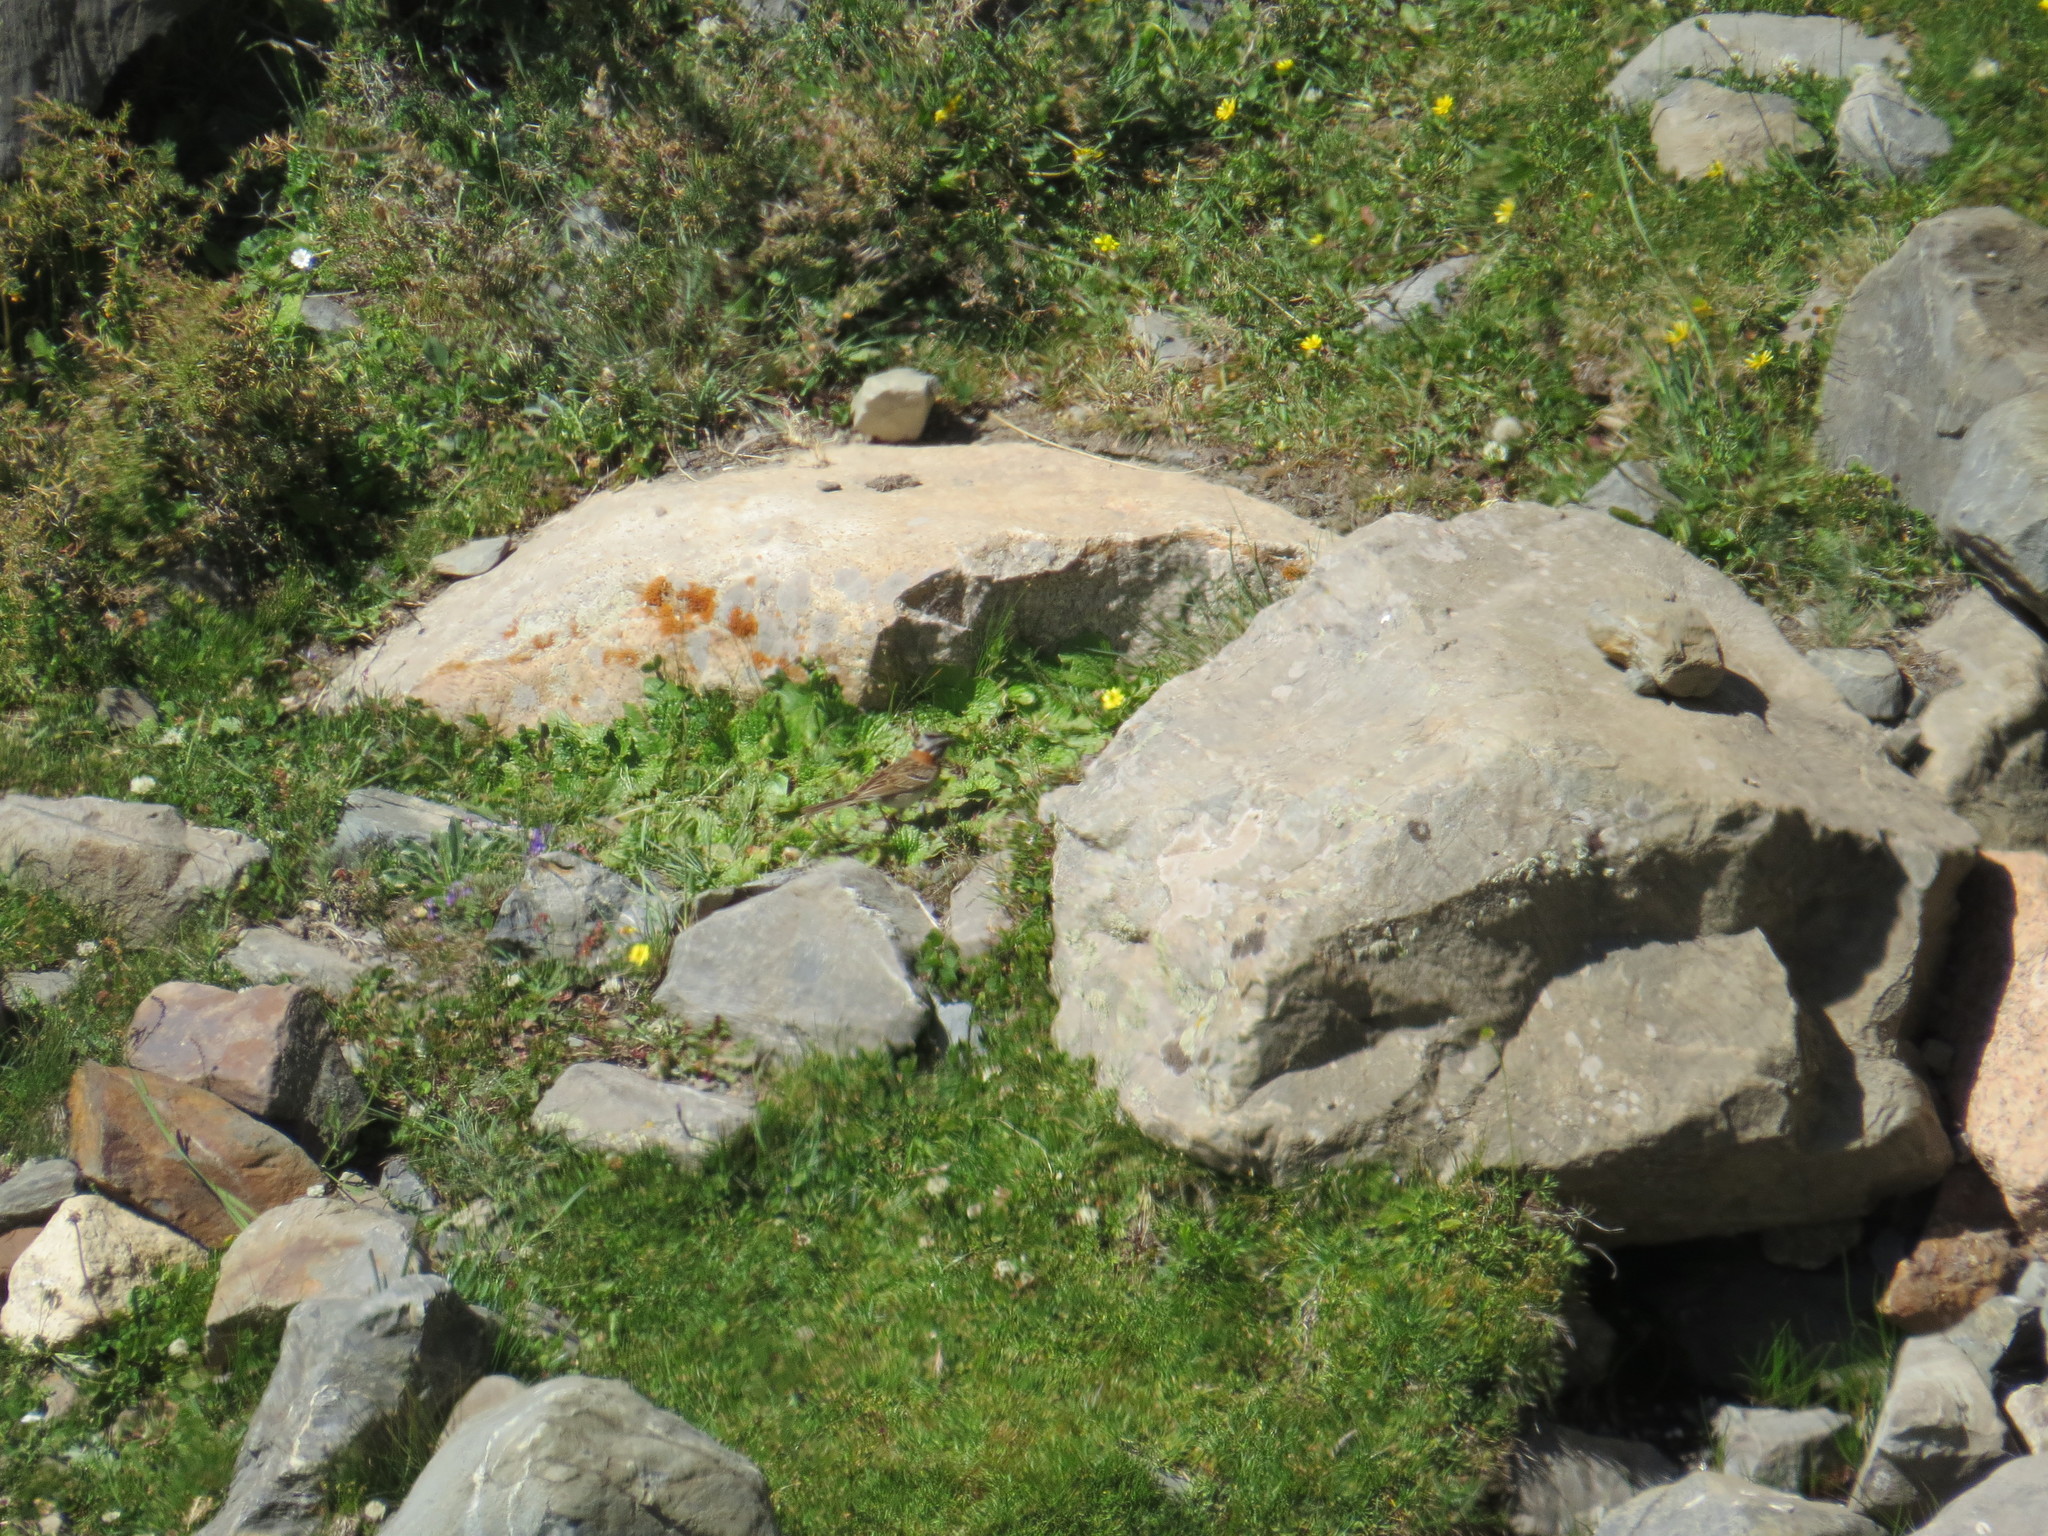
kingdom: Animalia
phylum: Chordata
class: Aves
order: Passeriformes
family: Passerellidae
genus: Zonotrichia
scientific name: Zonotrichia capensis
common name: Rufous-collared sparrow
